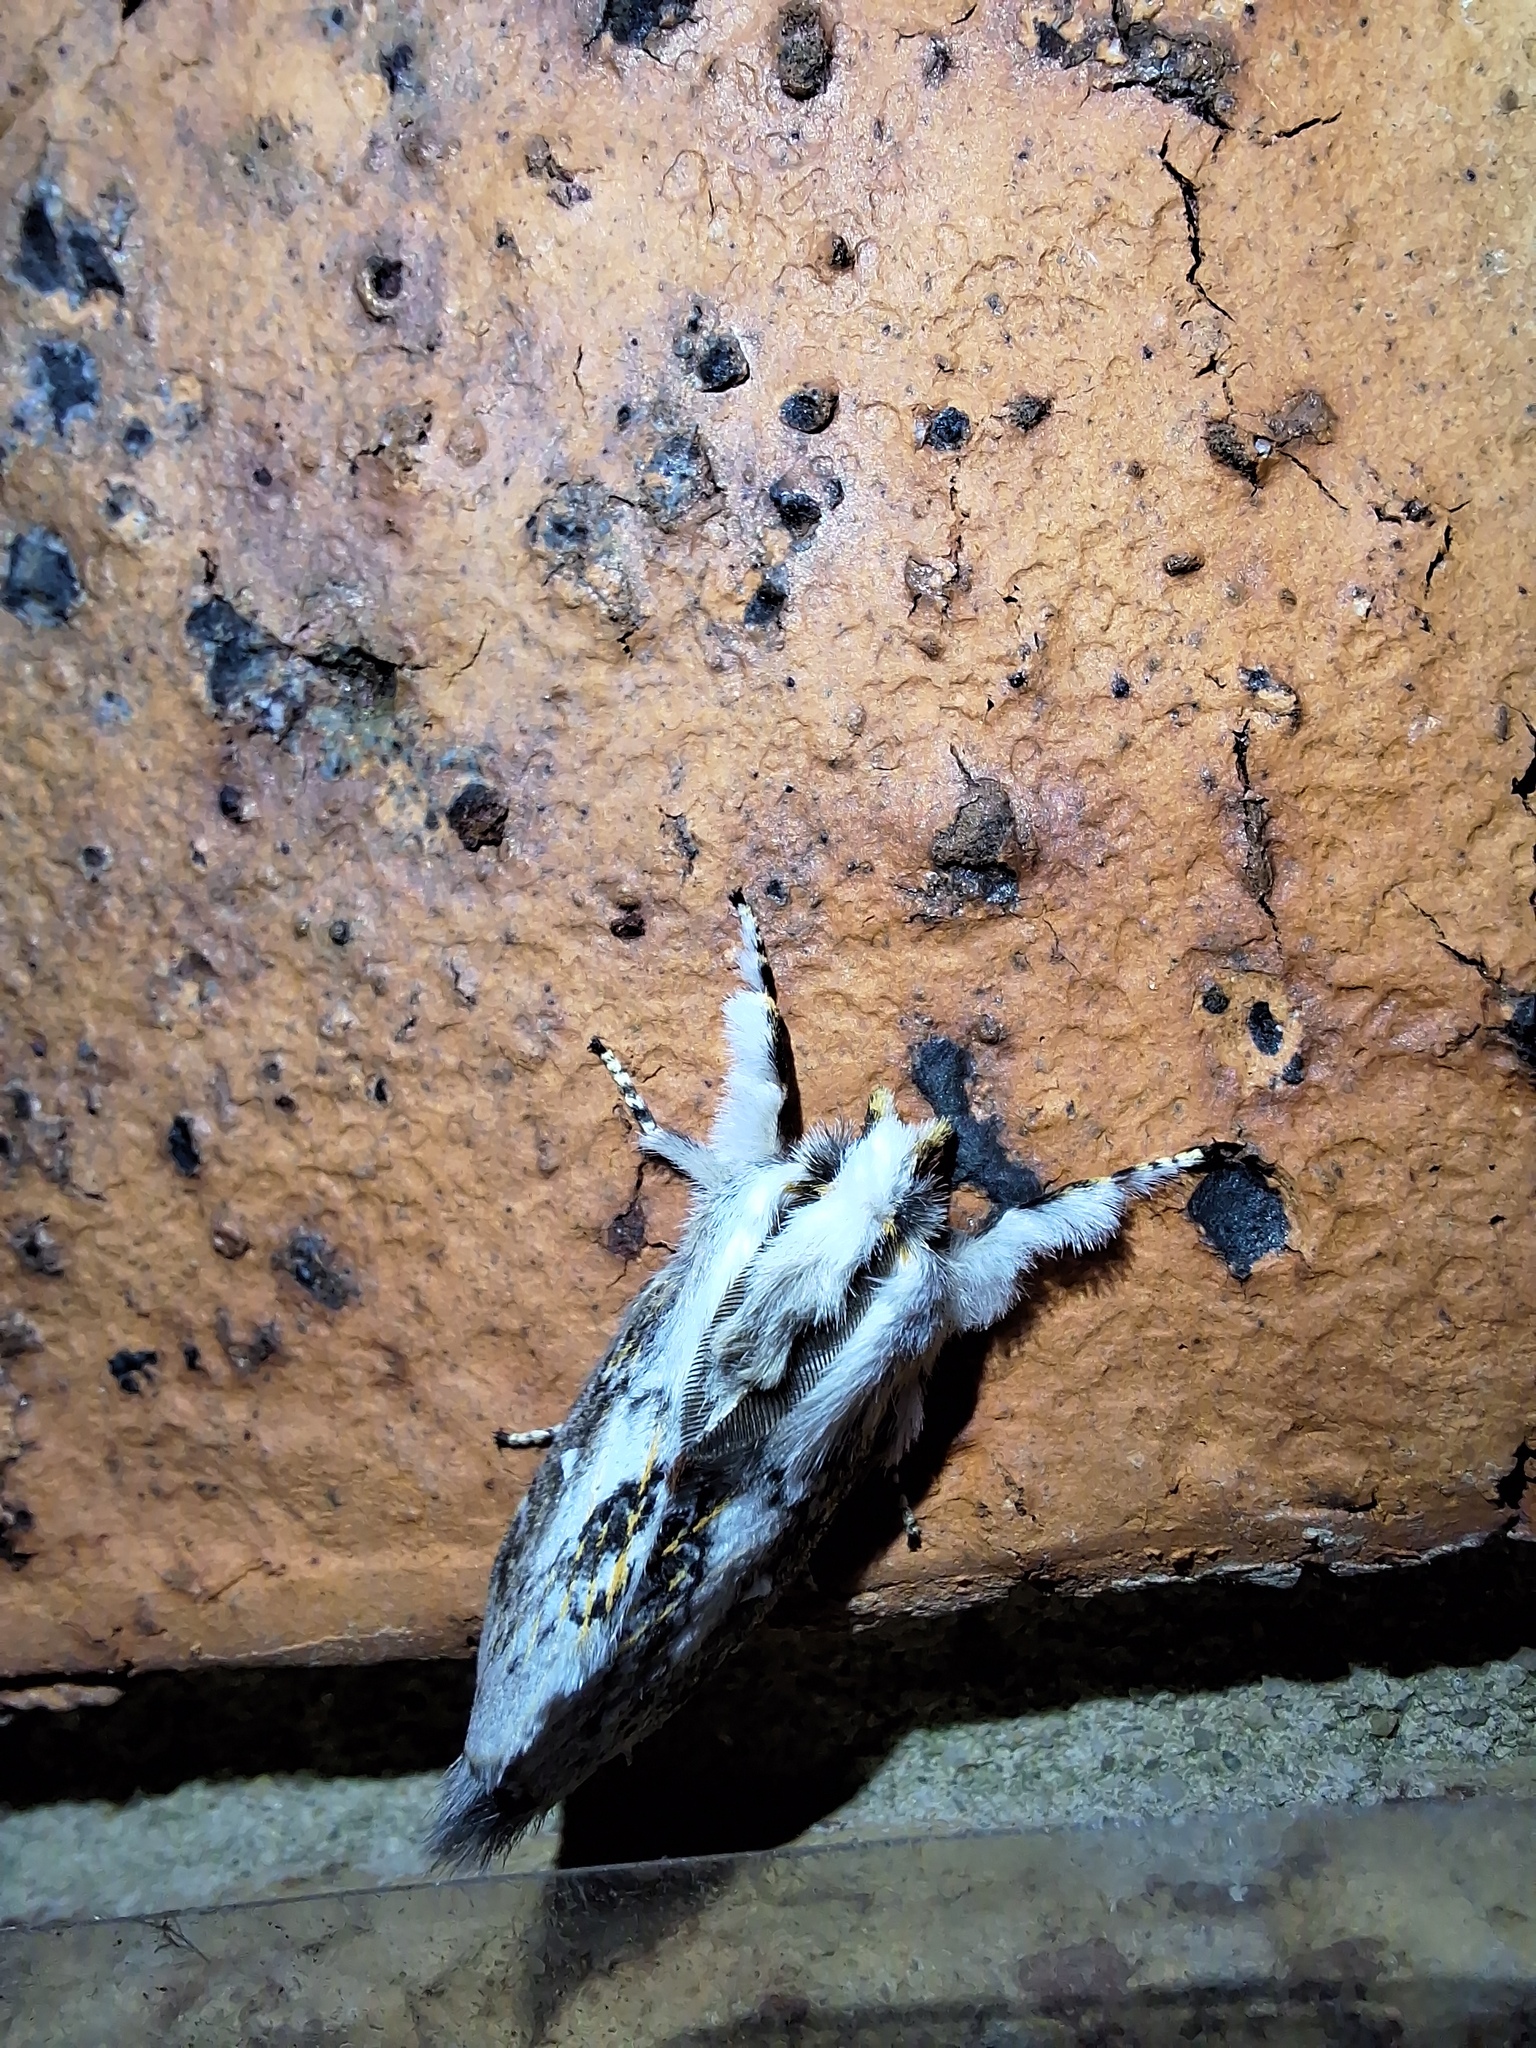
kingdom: Animalia
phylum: Arthropoda
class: Insecta
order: Lepidoptera
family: Lasiocampidae
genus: Porela
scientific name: Porela delineata
